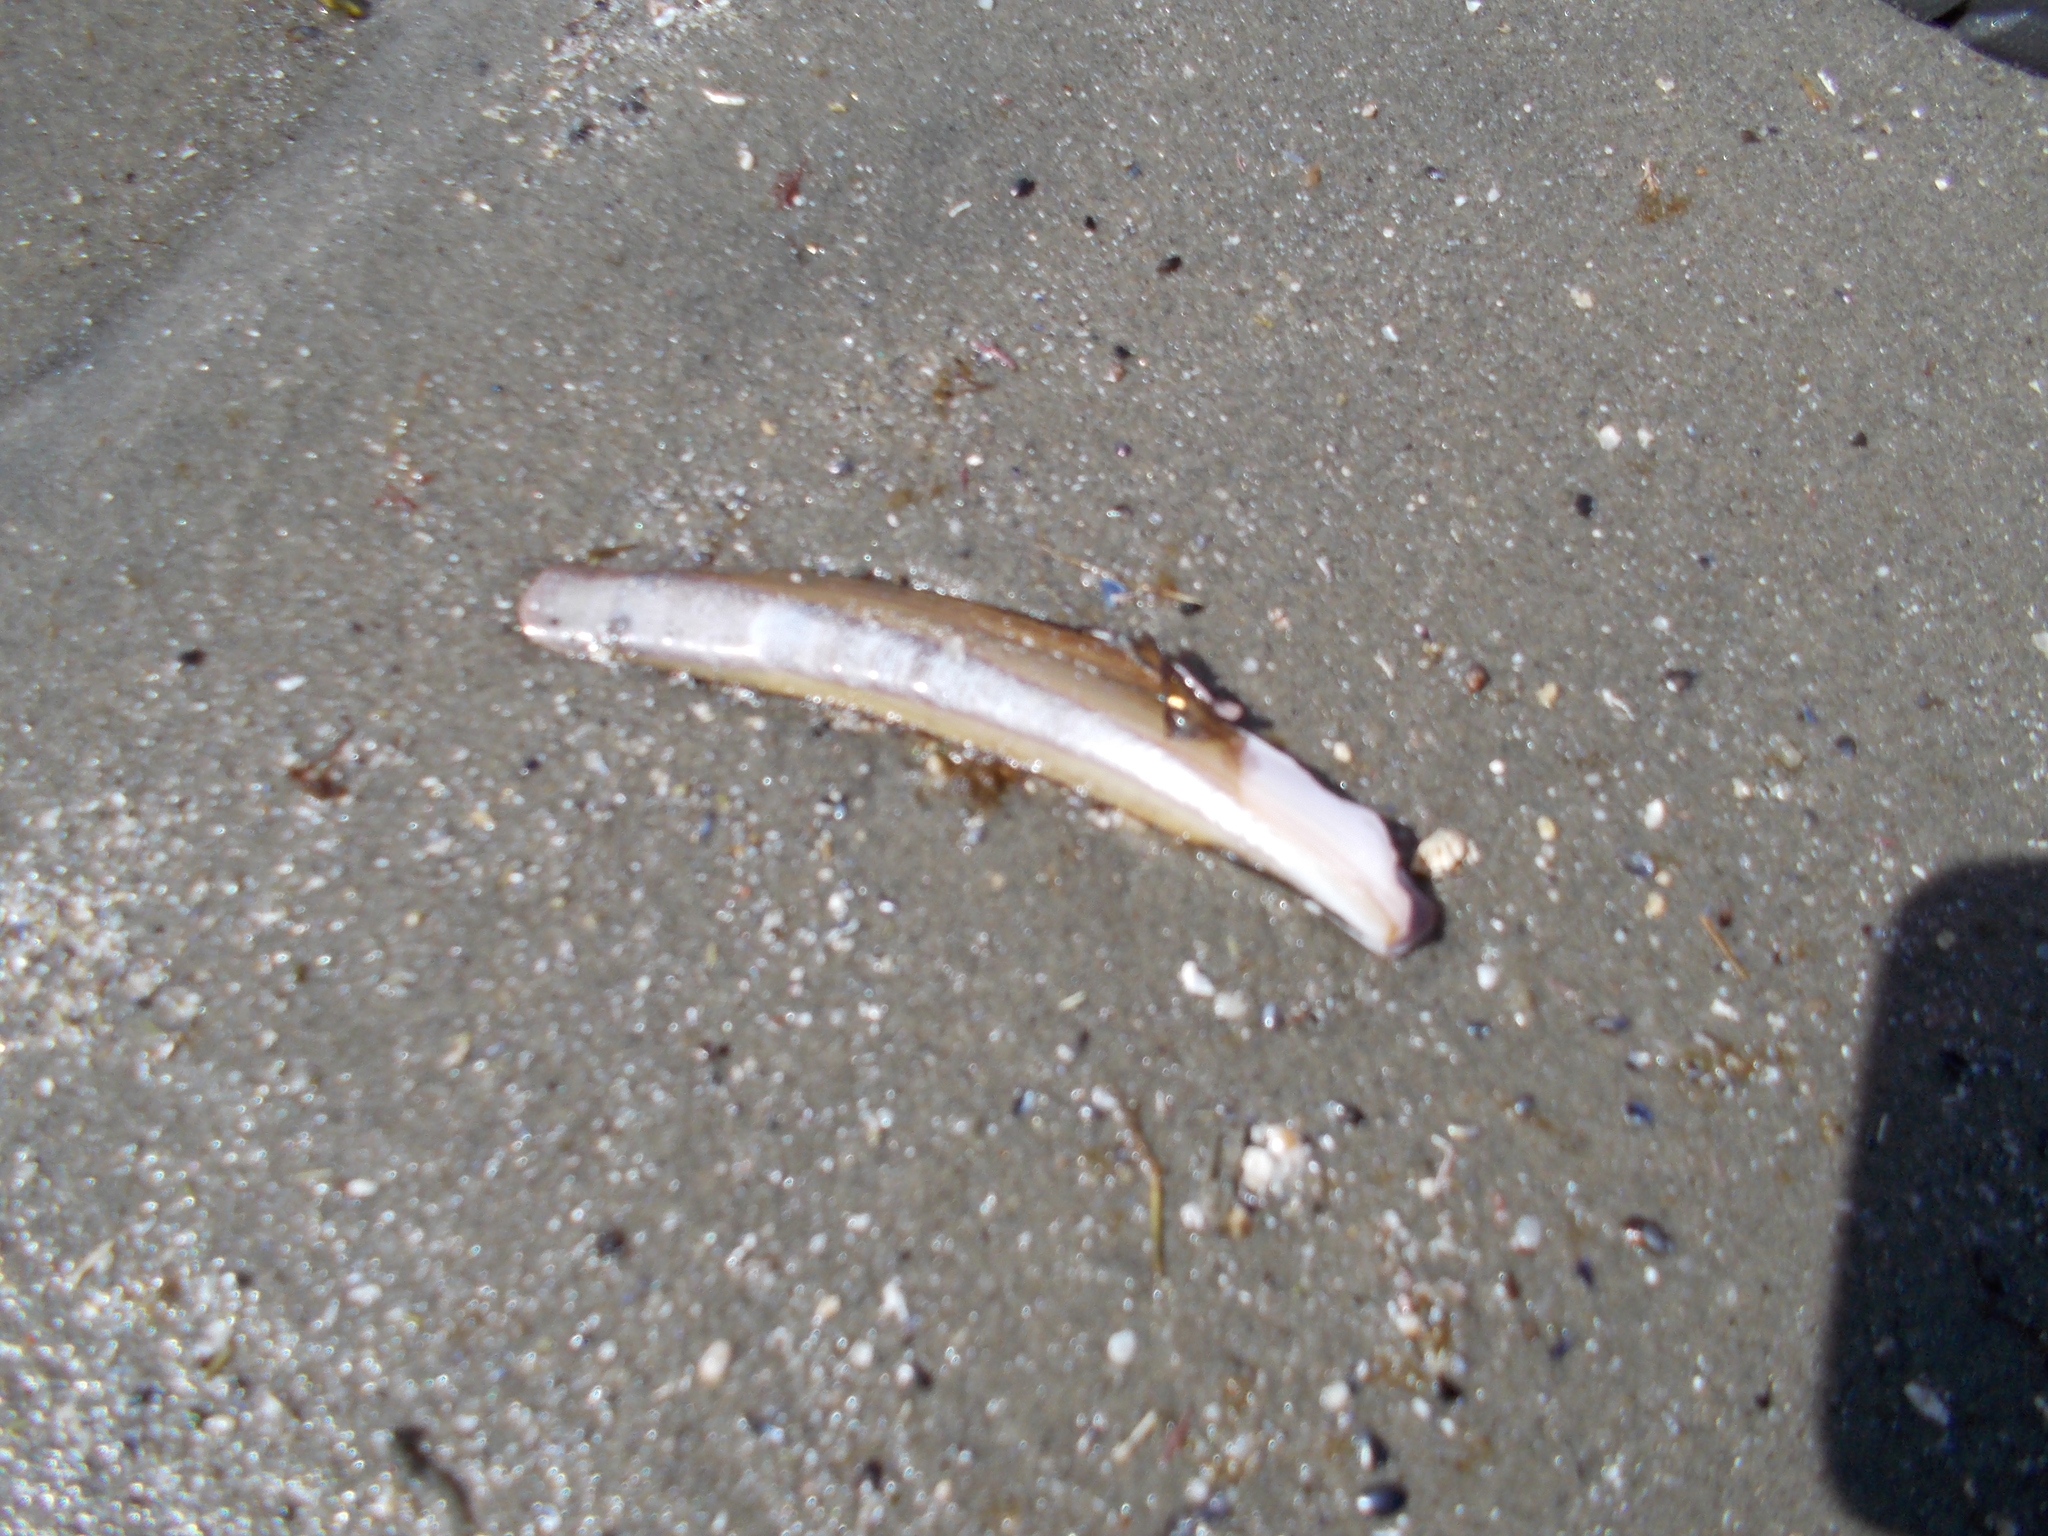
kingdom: Animalia
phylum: Mollusca
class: Bivalvia
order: Adapedonta
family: Pharidae
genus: Ensis
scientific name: Ensis leei
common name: American jack knife clam
